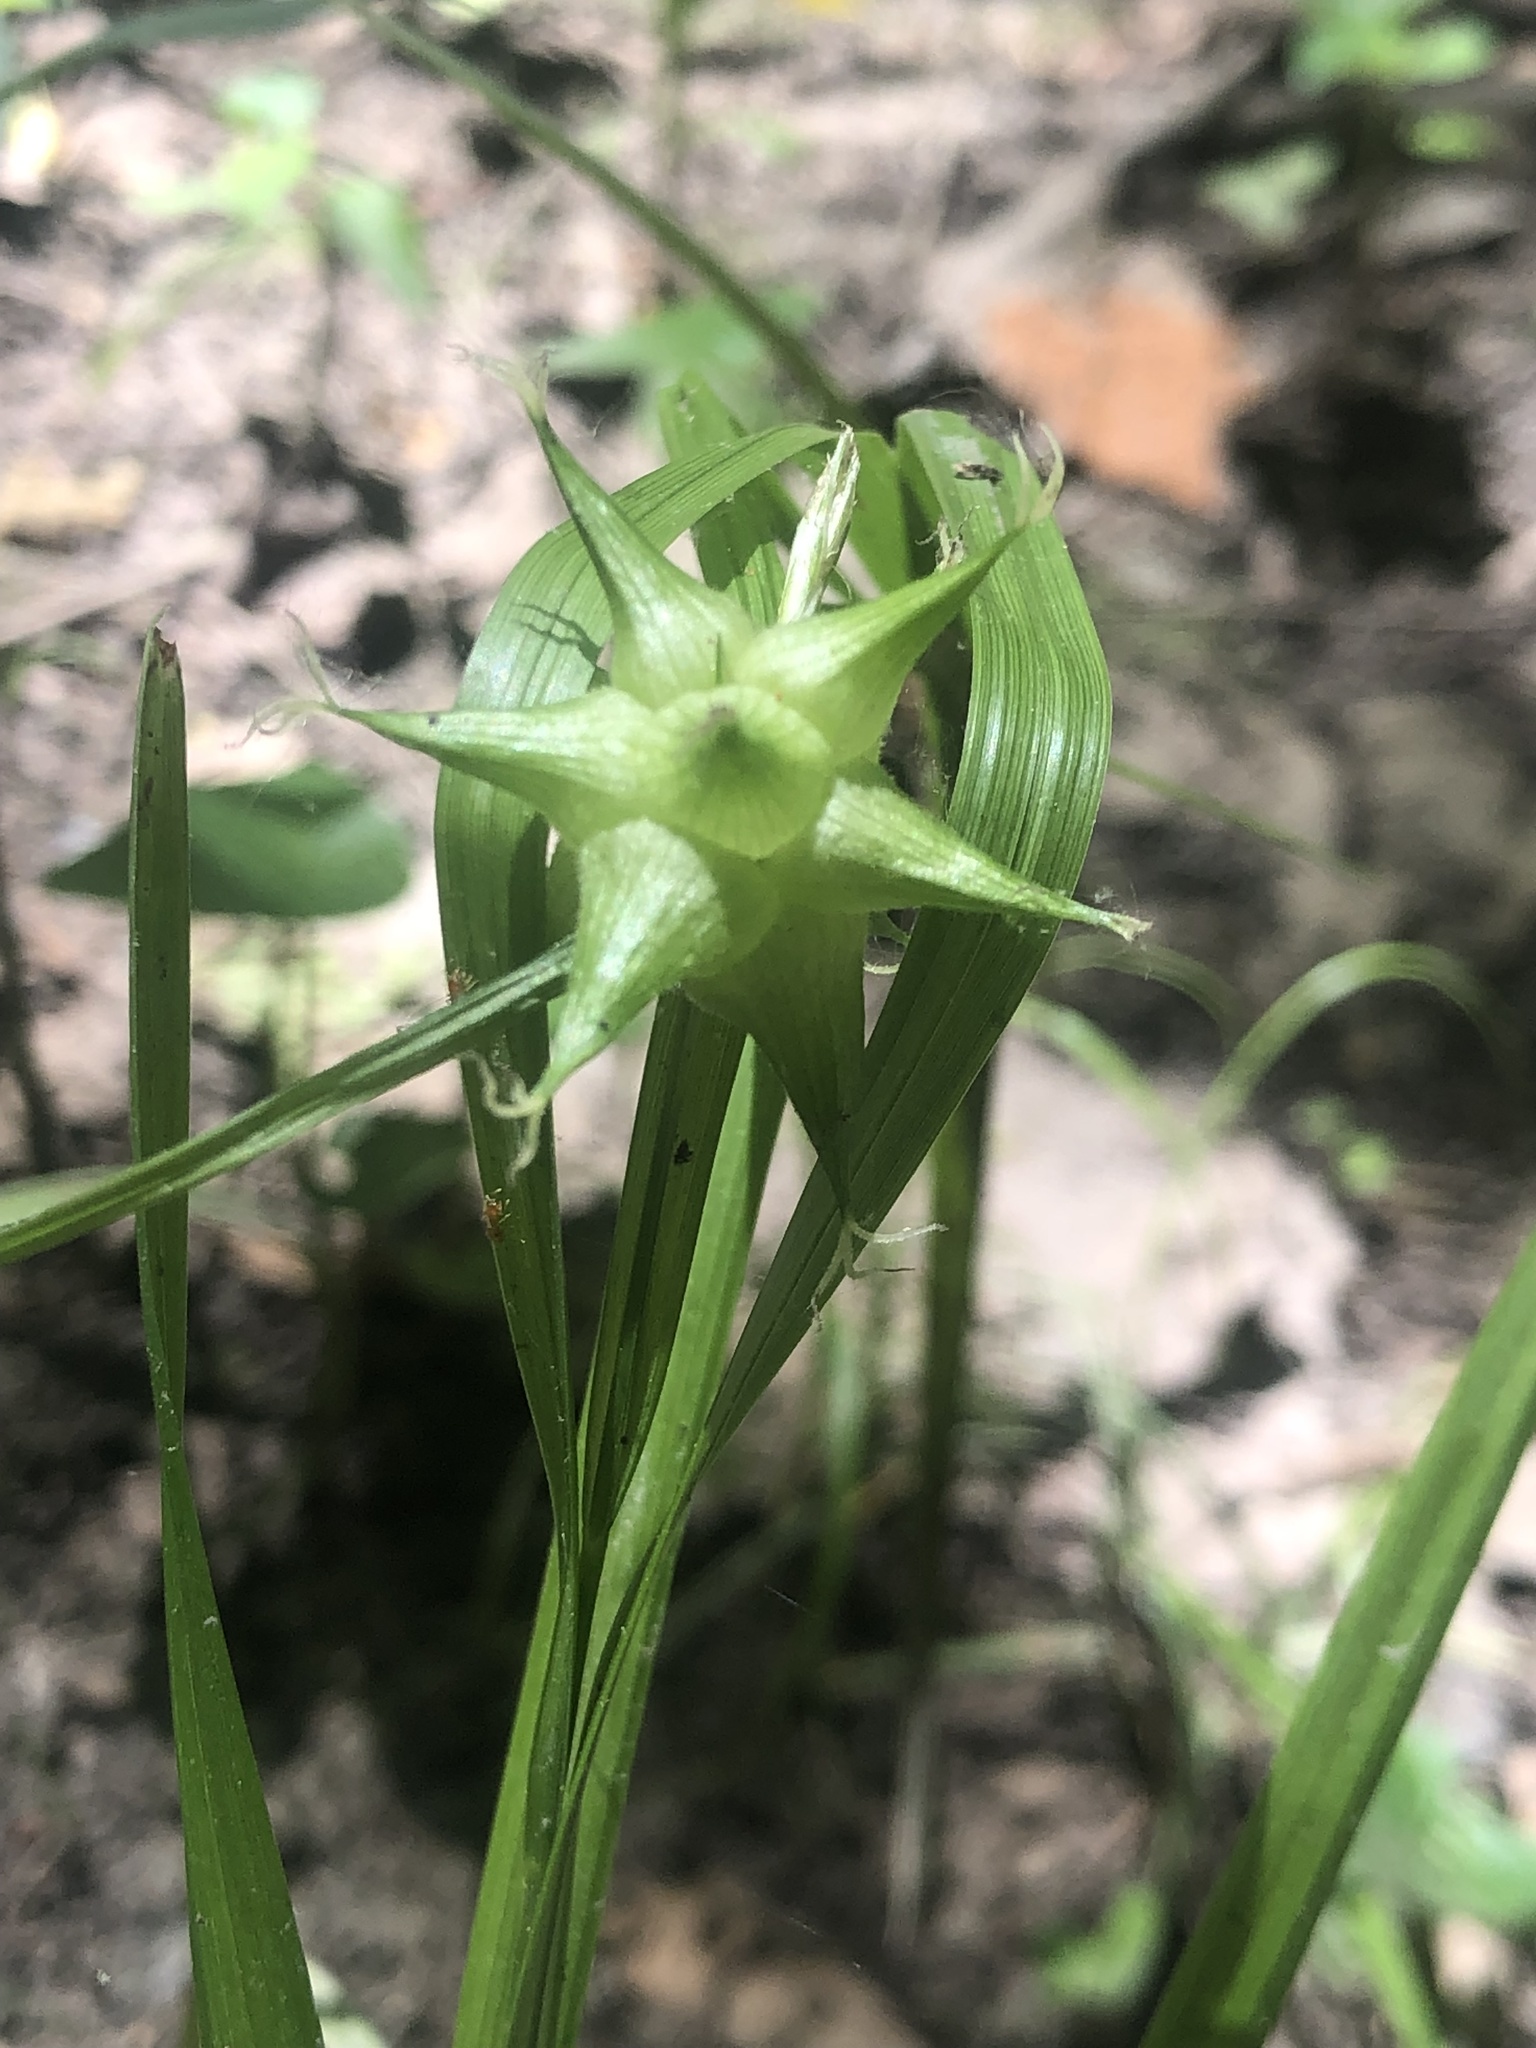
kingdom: Plantae
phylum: Tracheophyta
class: Liliopsida
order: Poales
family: Cyperaceae
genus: Carex
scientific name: Carex grayi
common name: Asa gray's sedge
